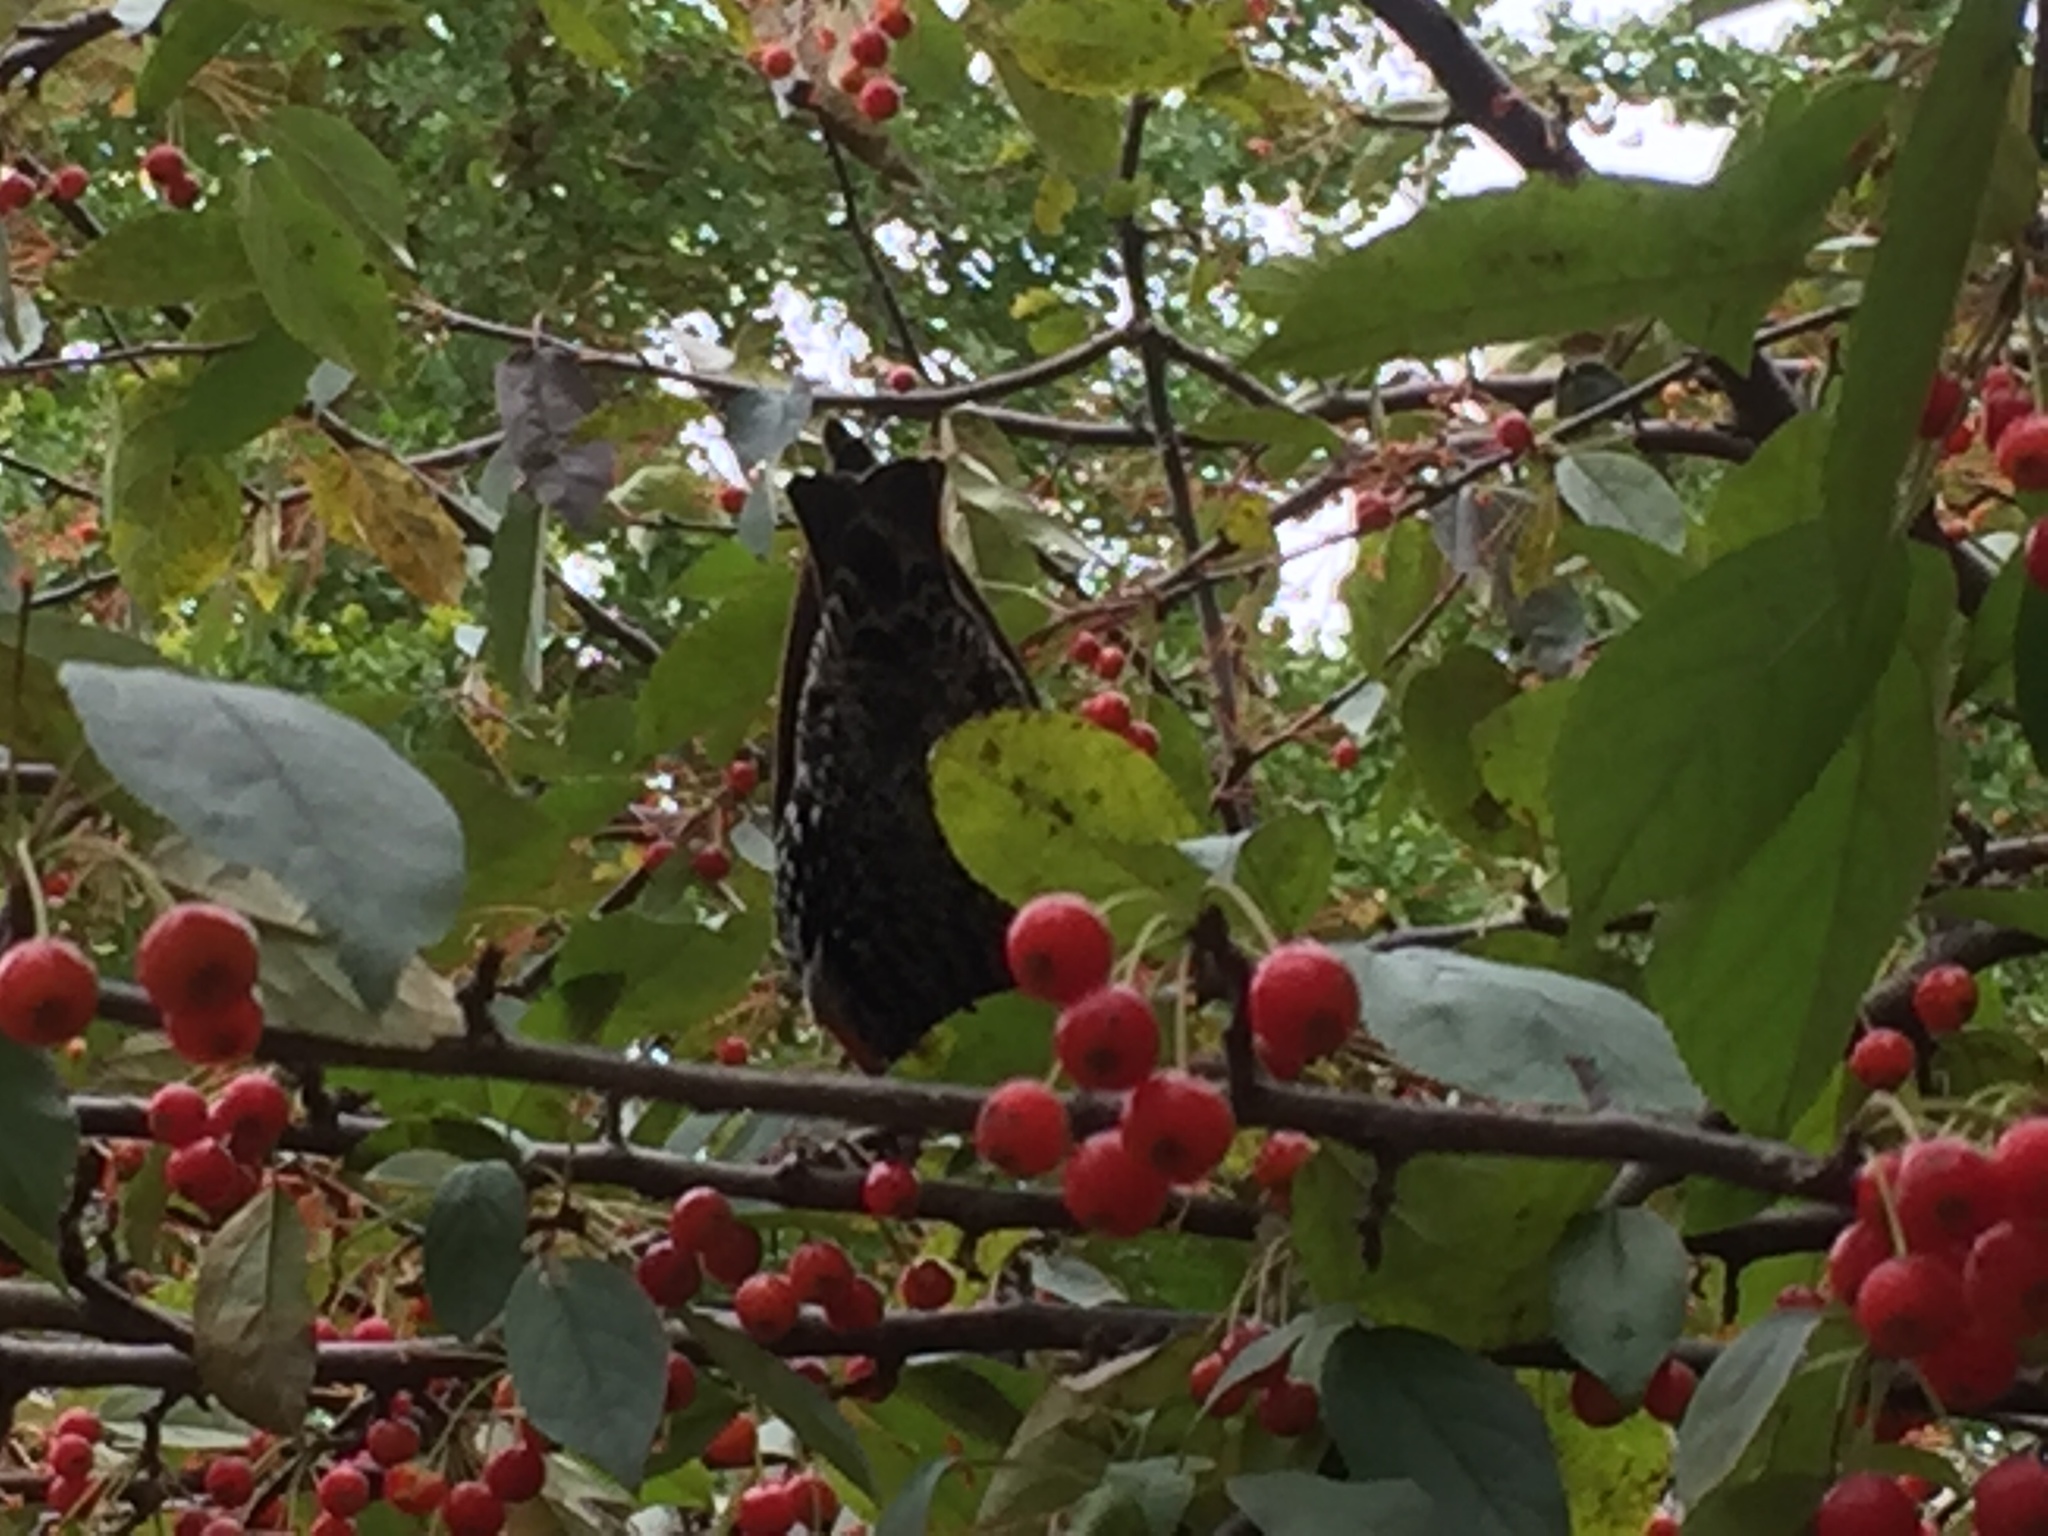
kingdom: Animalia
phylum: Chordata
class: Aves
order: Passeriformes
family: Sturnidae
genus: Sturnus
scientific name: Sturnus vulgaris
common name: Common starling
